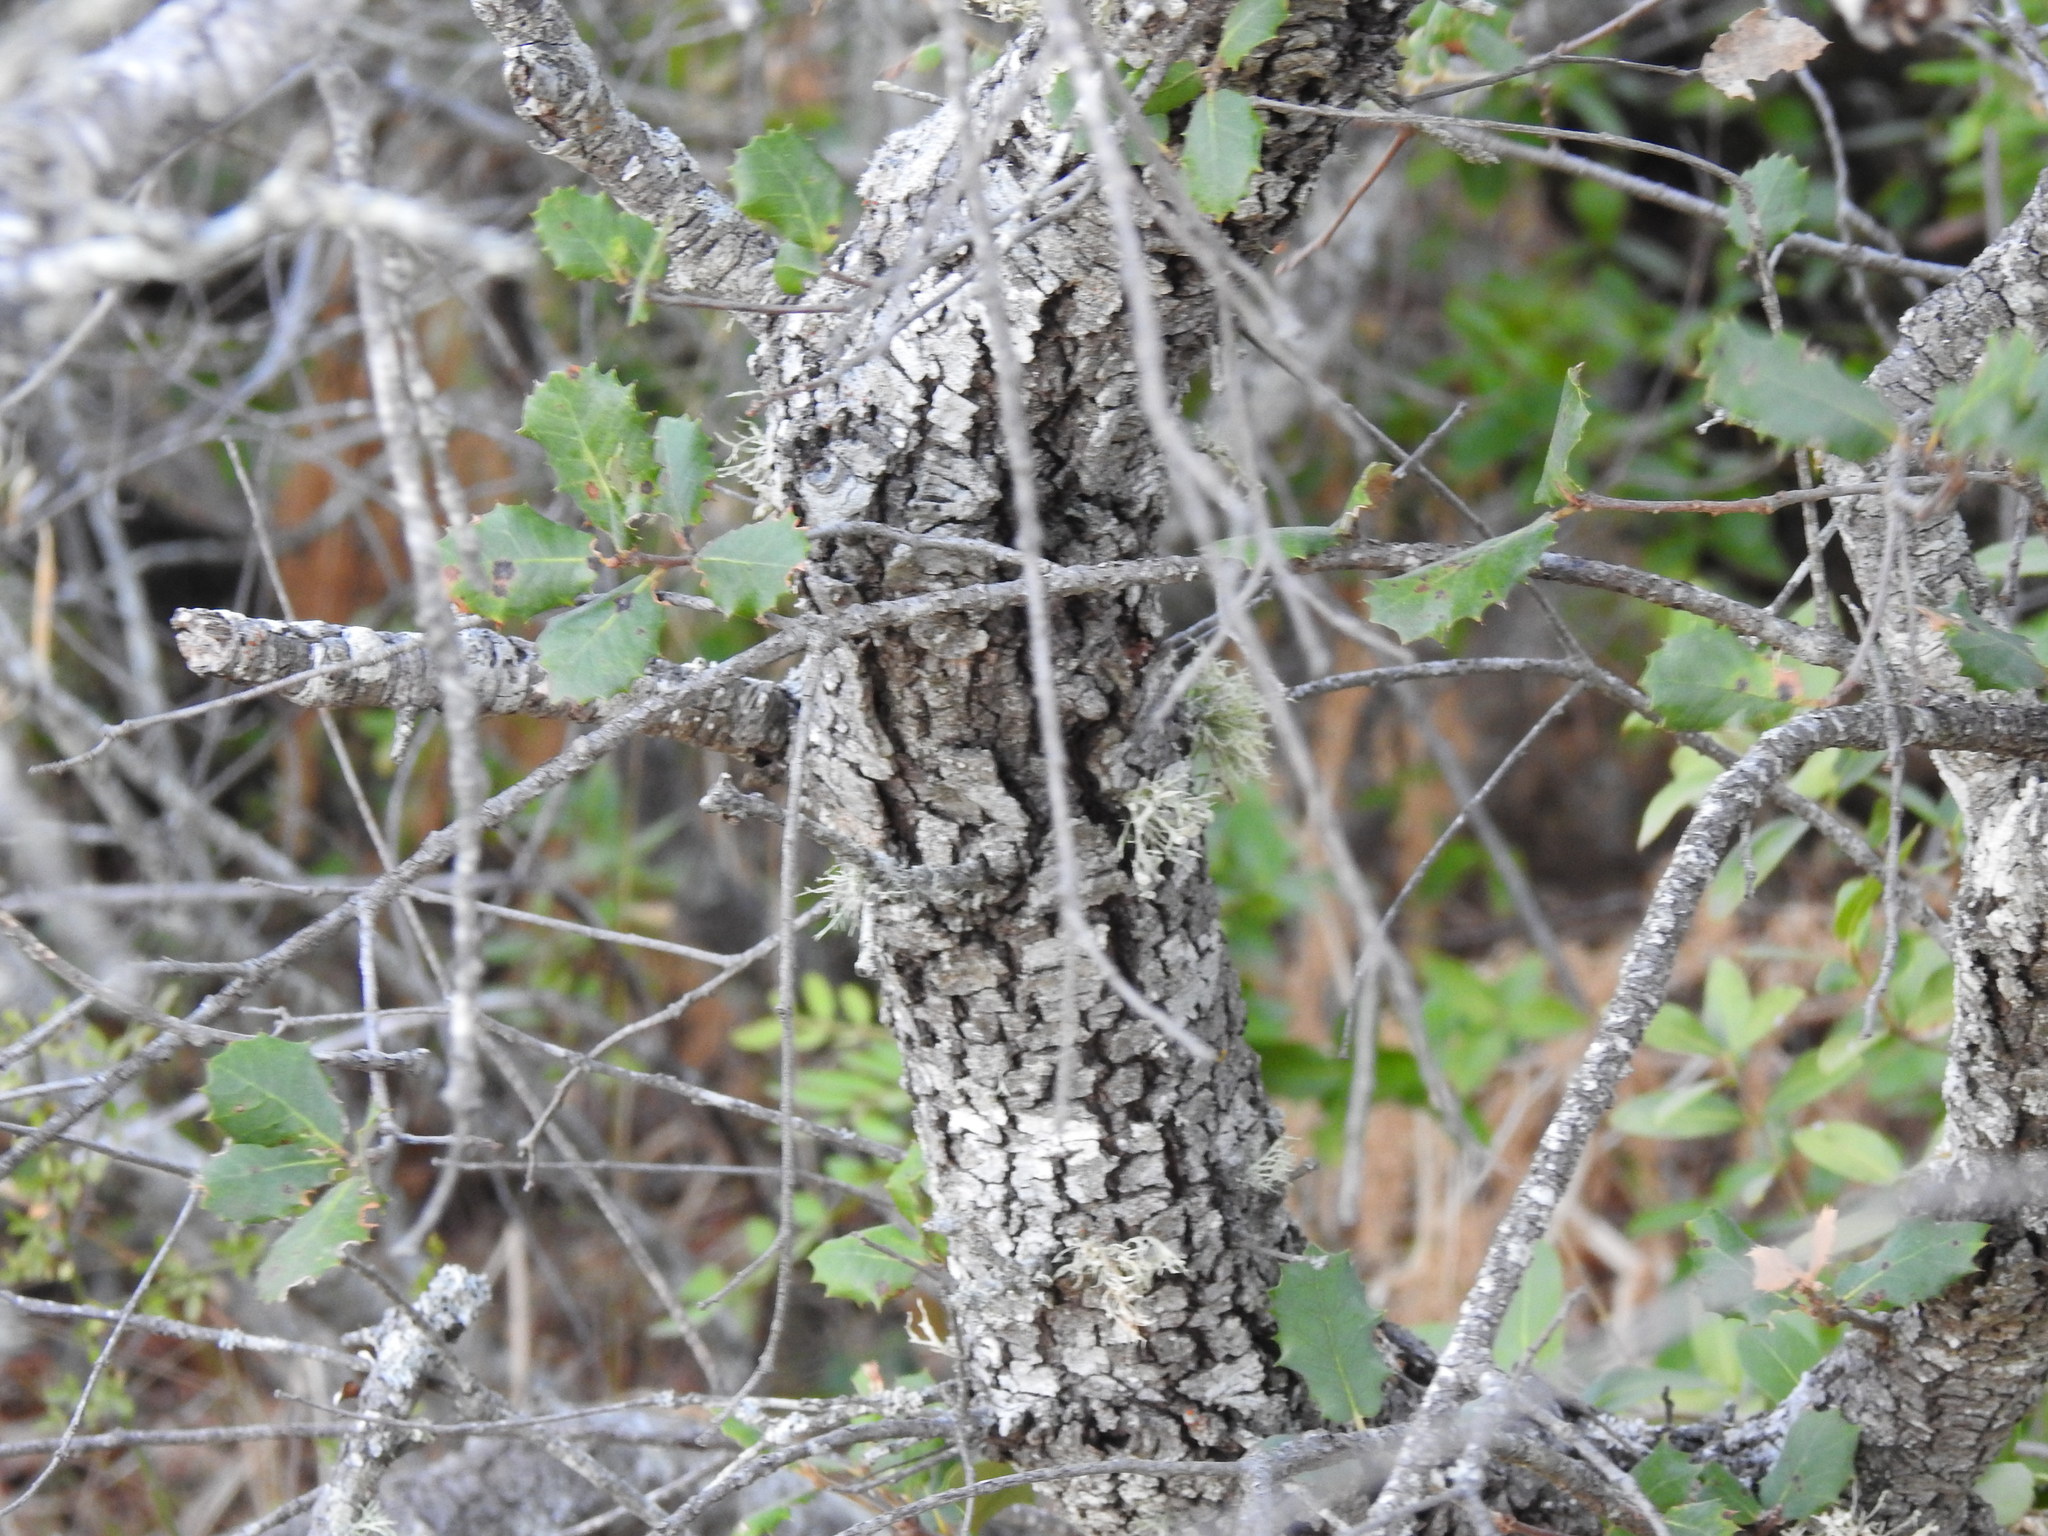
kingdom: Plantae
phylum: Tracheophyta
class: Magnoliopsida
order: Fagales
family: Fagaceae
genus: Quercus
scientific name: Quercus rotundifolia
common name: Holm oak
